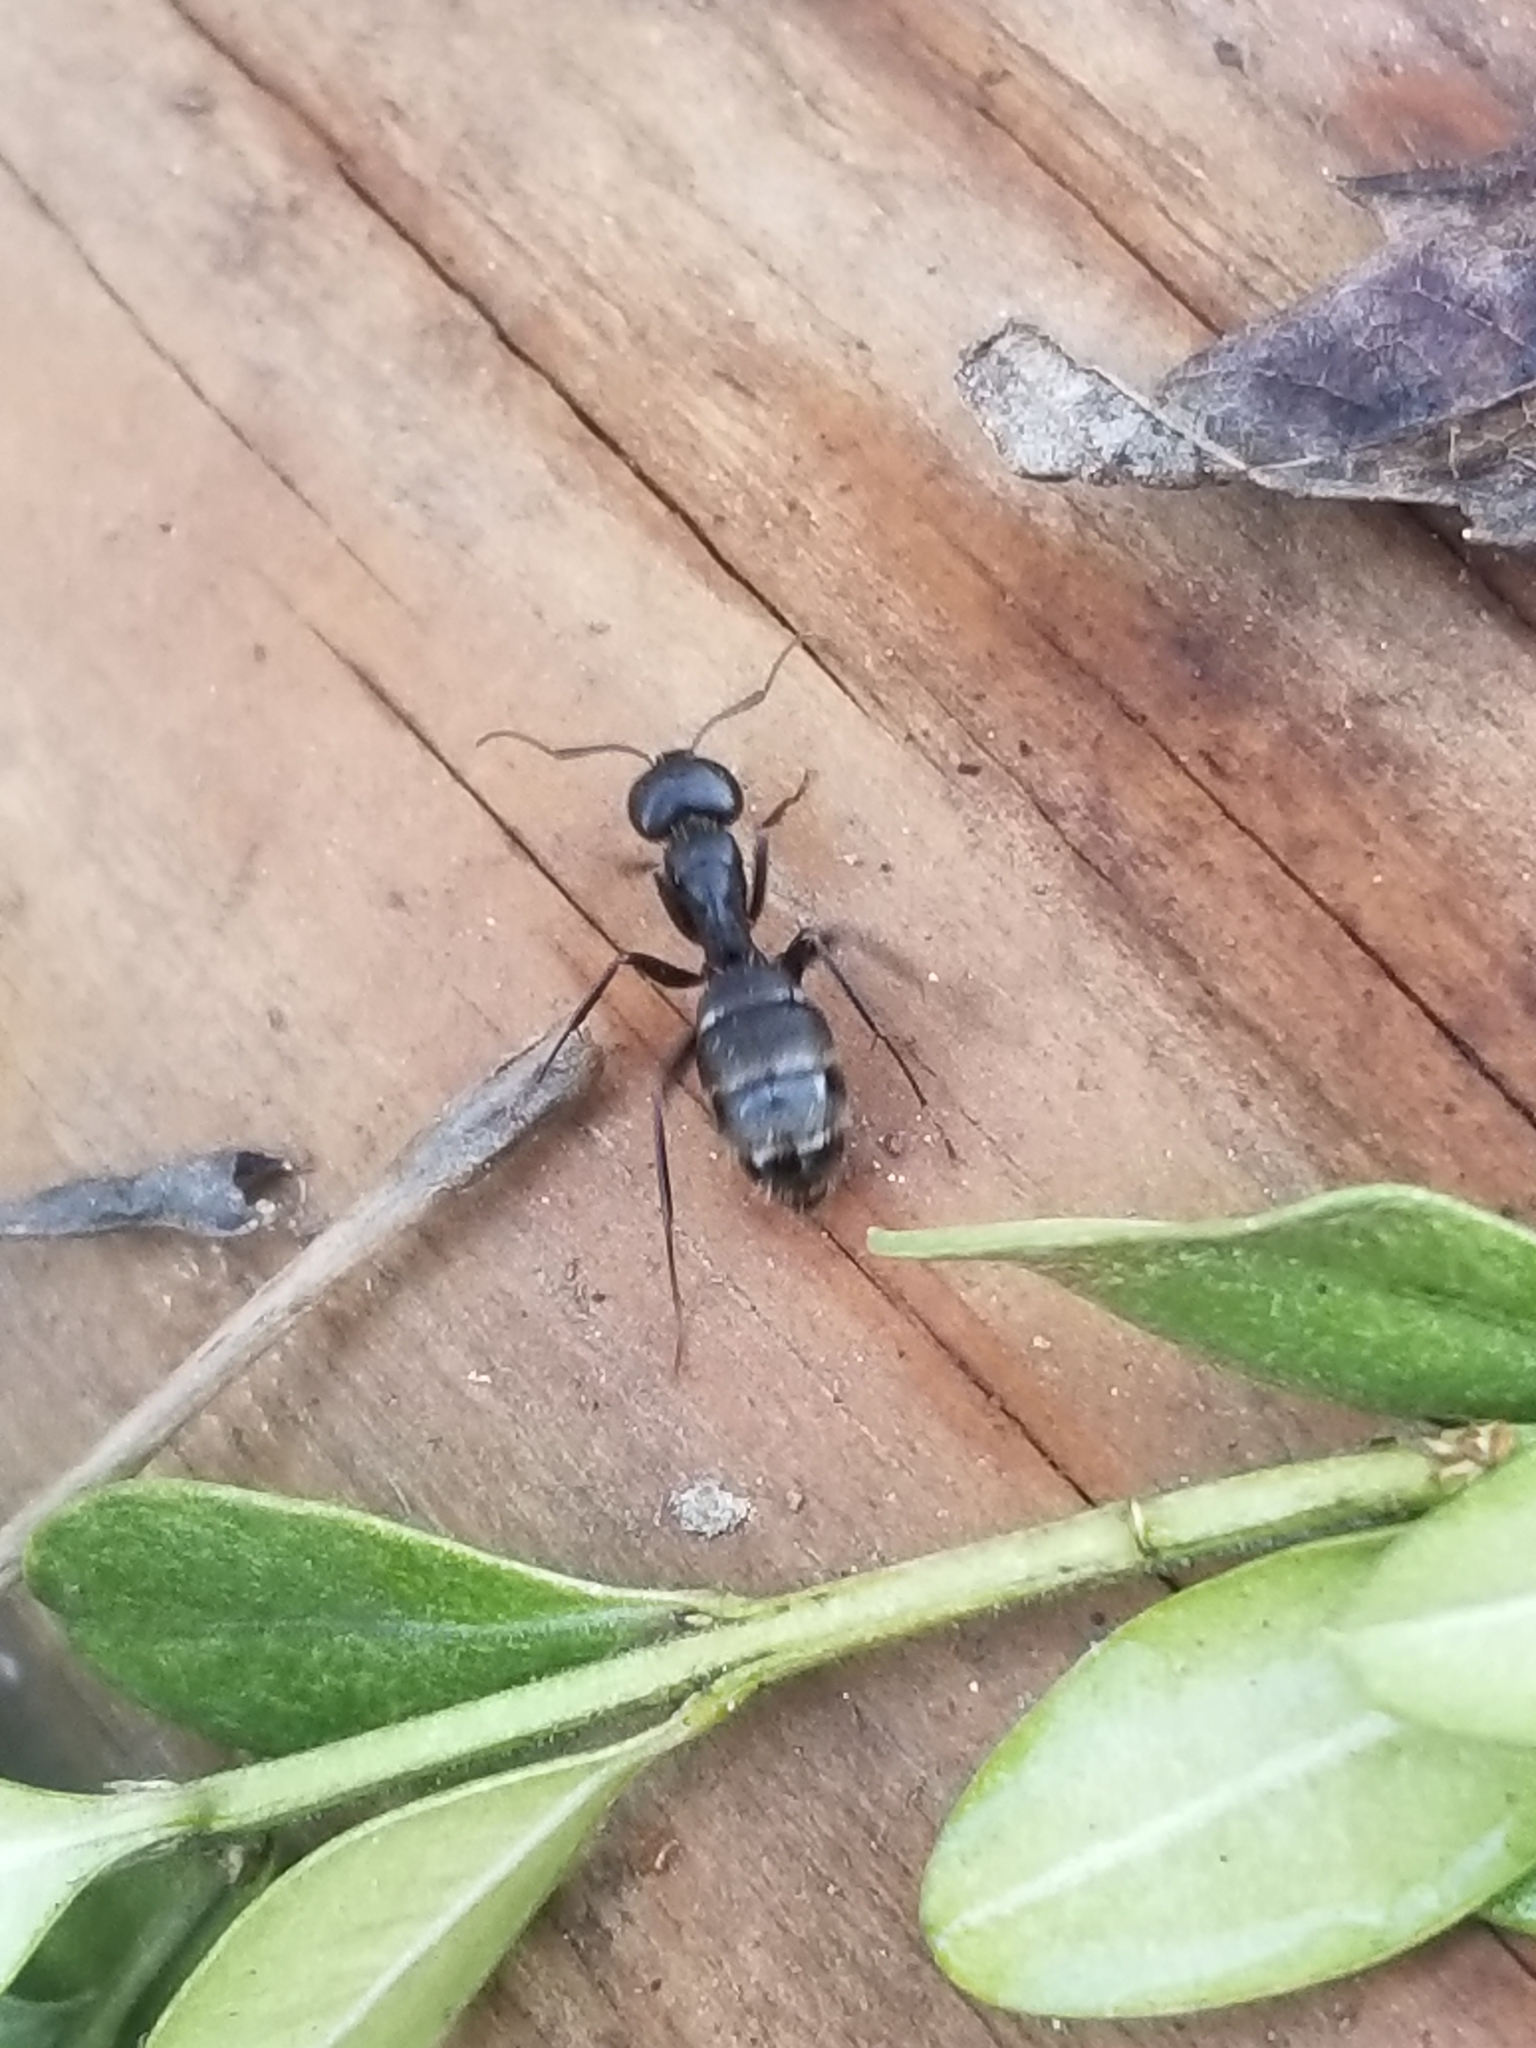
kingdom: Animalia
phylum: Arthropoda
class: Insecta
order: Hymenoptera
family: Formicidae
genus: Camponotus
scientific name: Camponotus pennsylvanicus
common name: Black carpenter ant
